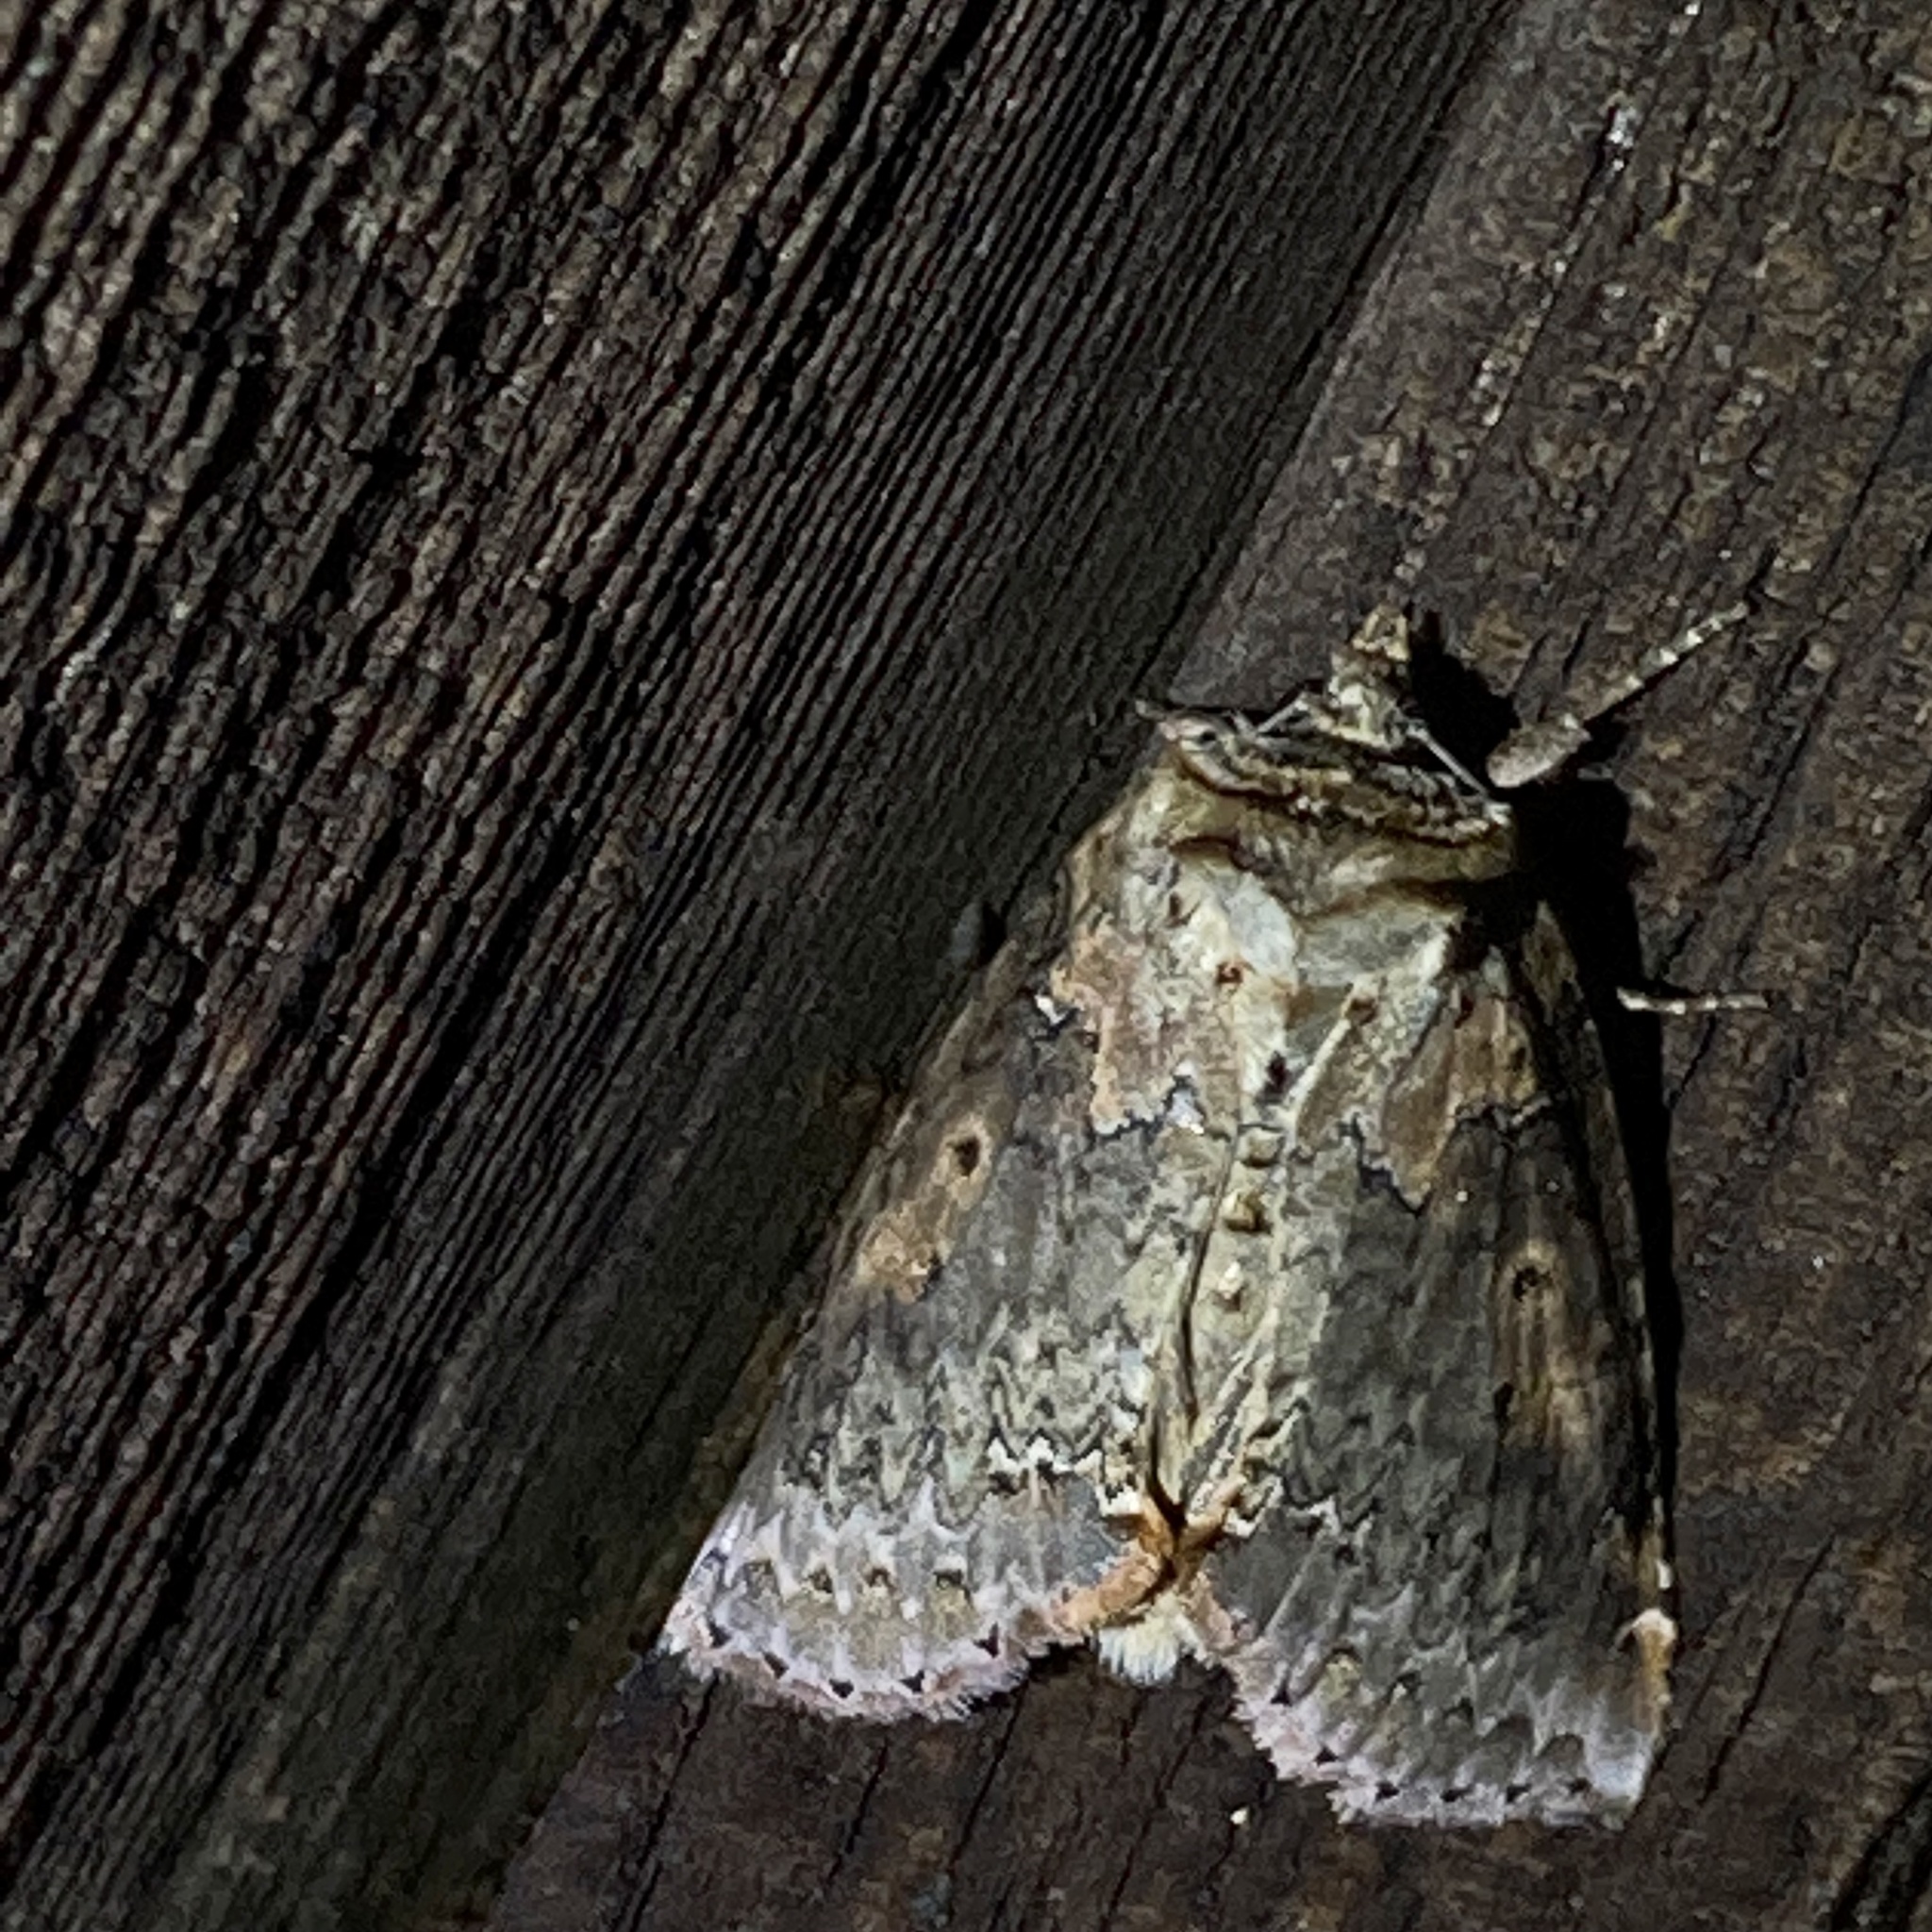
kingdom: Animalia
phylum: Arthropoda
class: Insecta
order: Lepidoptera
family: Drepanidae
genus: Pseudothyatira
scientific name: Pseudothyatira cymatophoroides
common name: Tufted thyatirid moth
